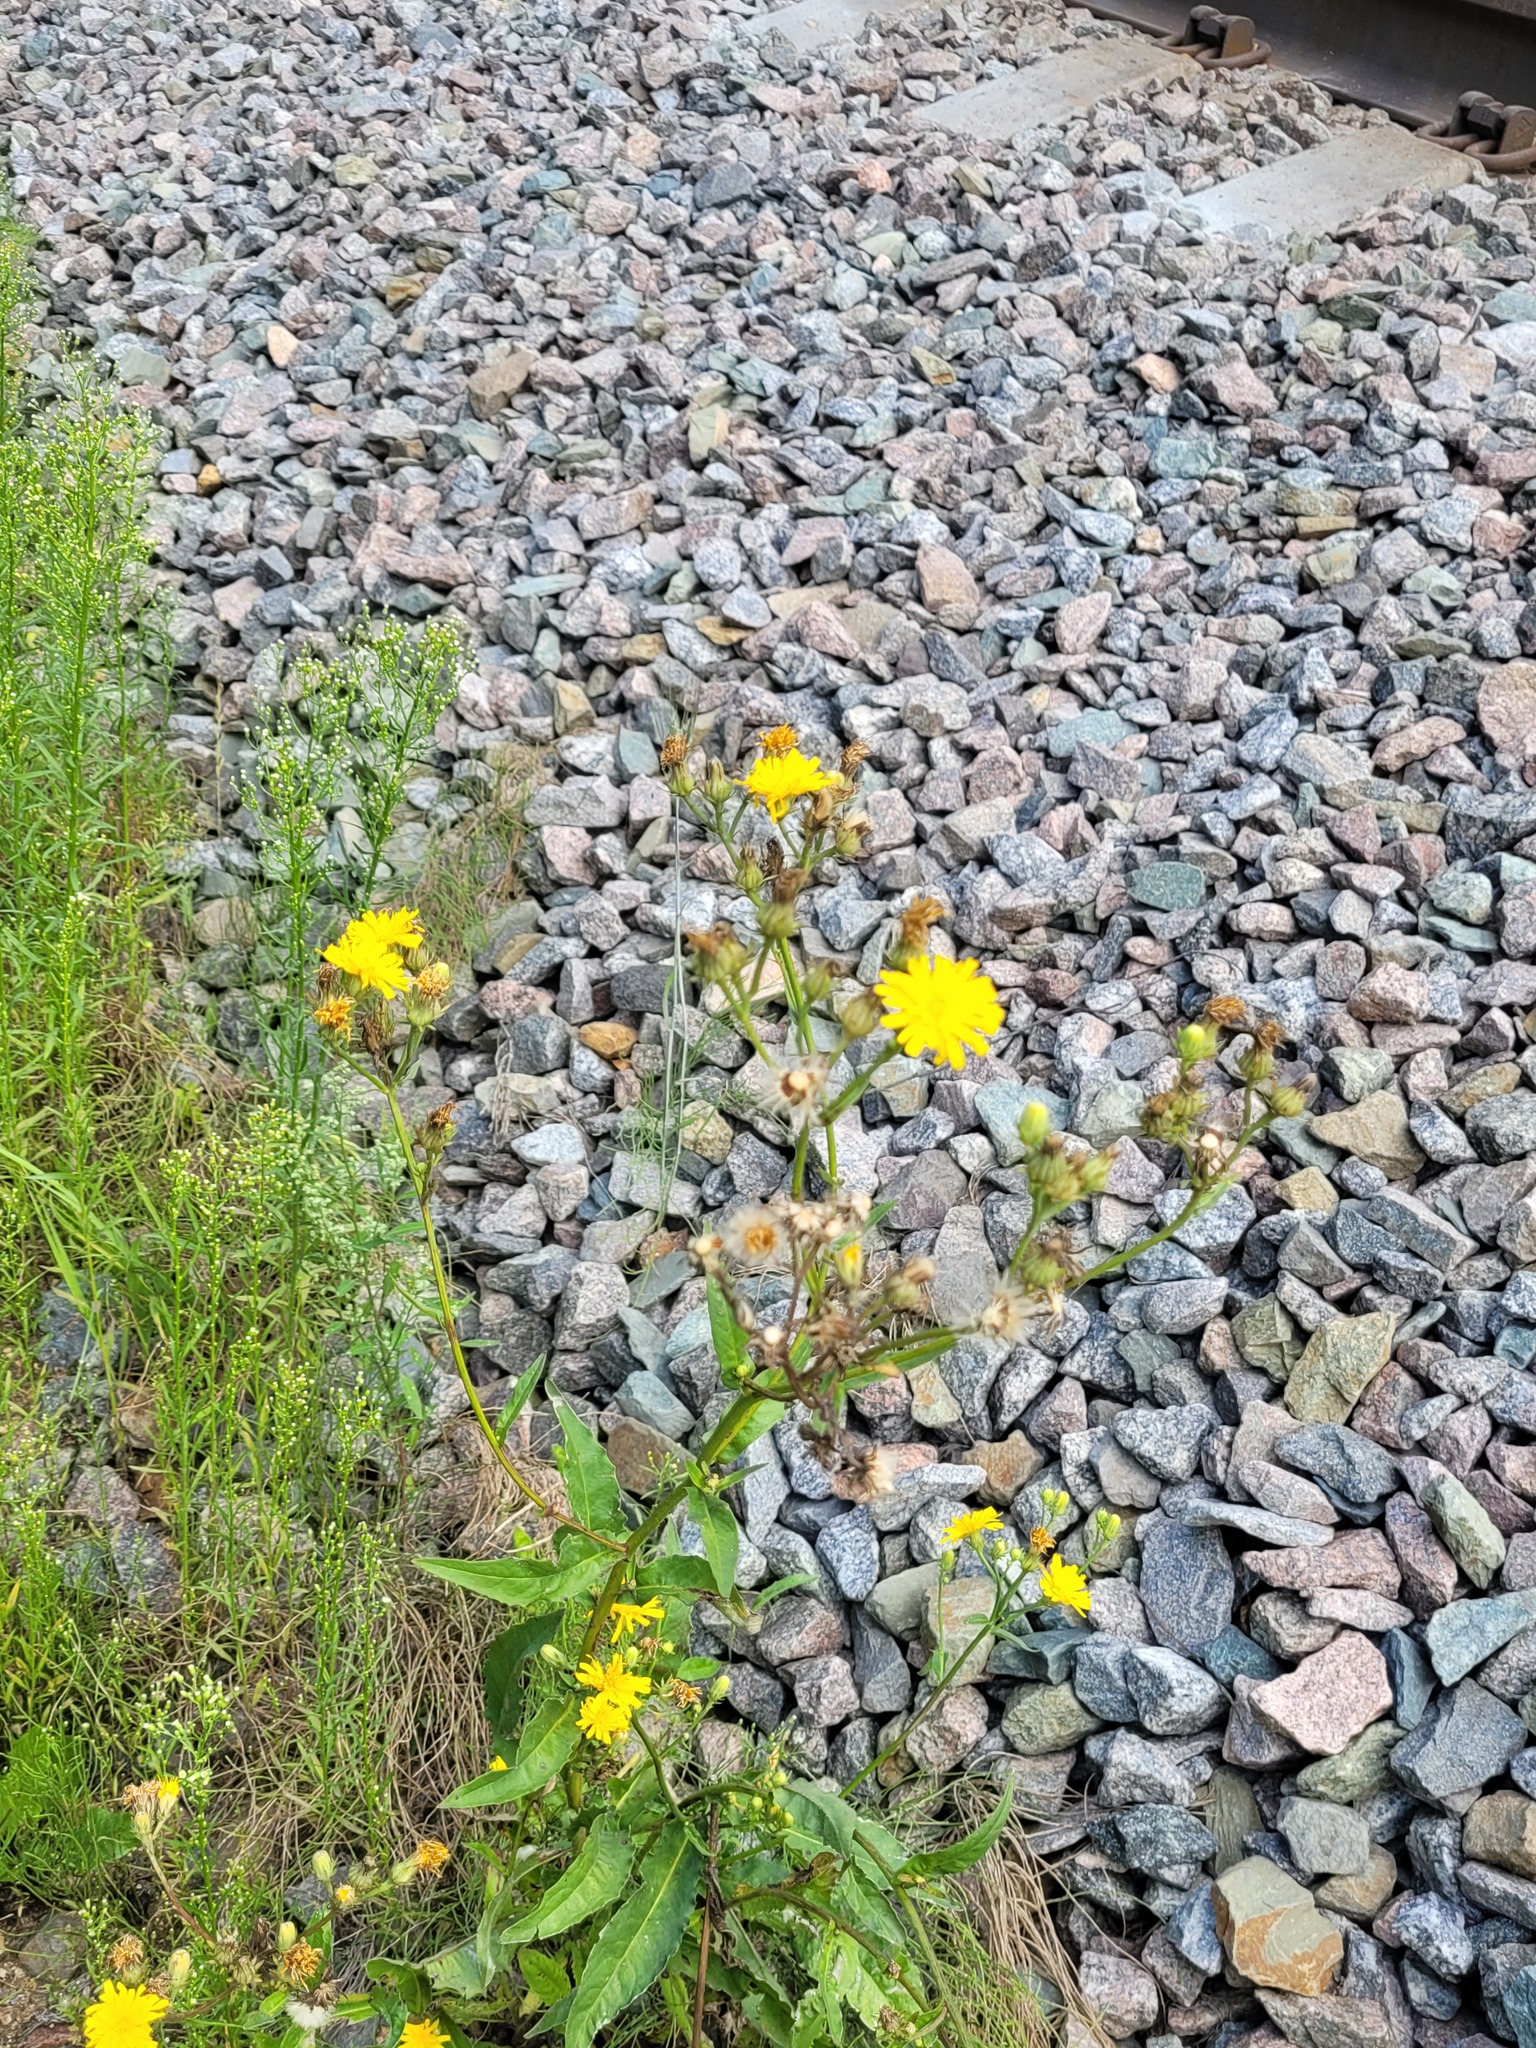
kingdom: Plantae
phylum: Tracheophyta
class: Magnoliopsida
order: Asterales
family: Asteraceae
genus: Picris
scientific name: Picris hieracioides
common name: Hawkweed oxtongue
